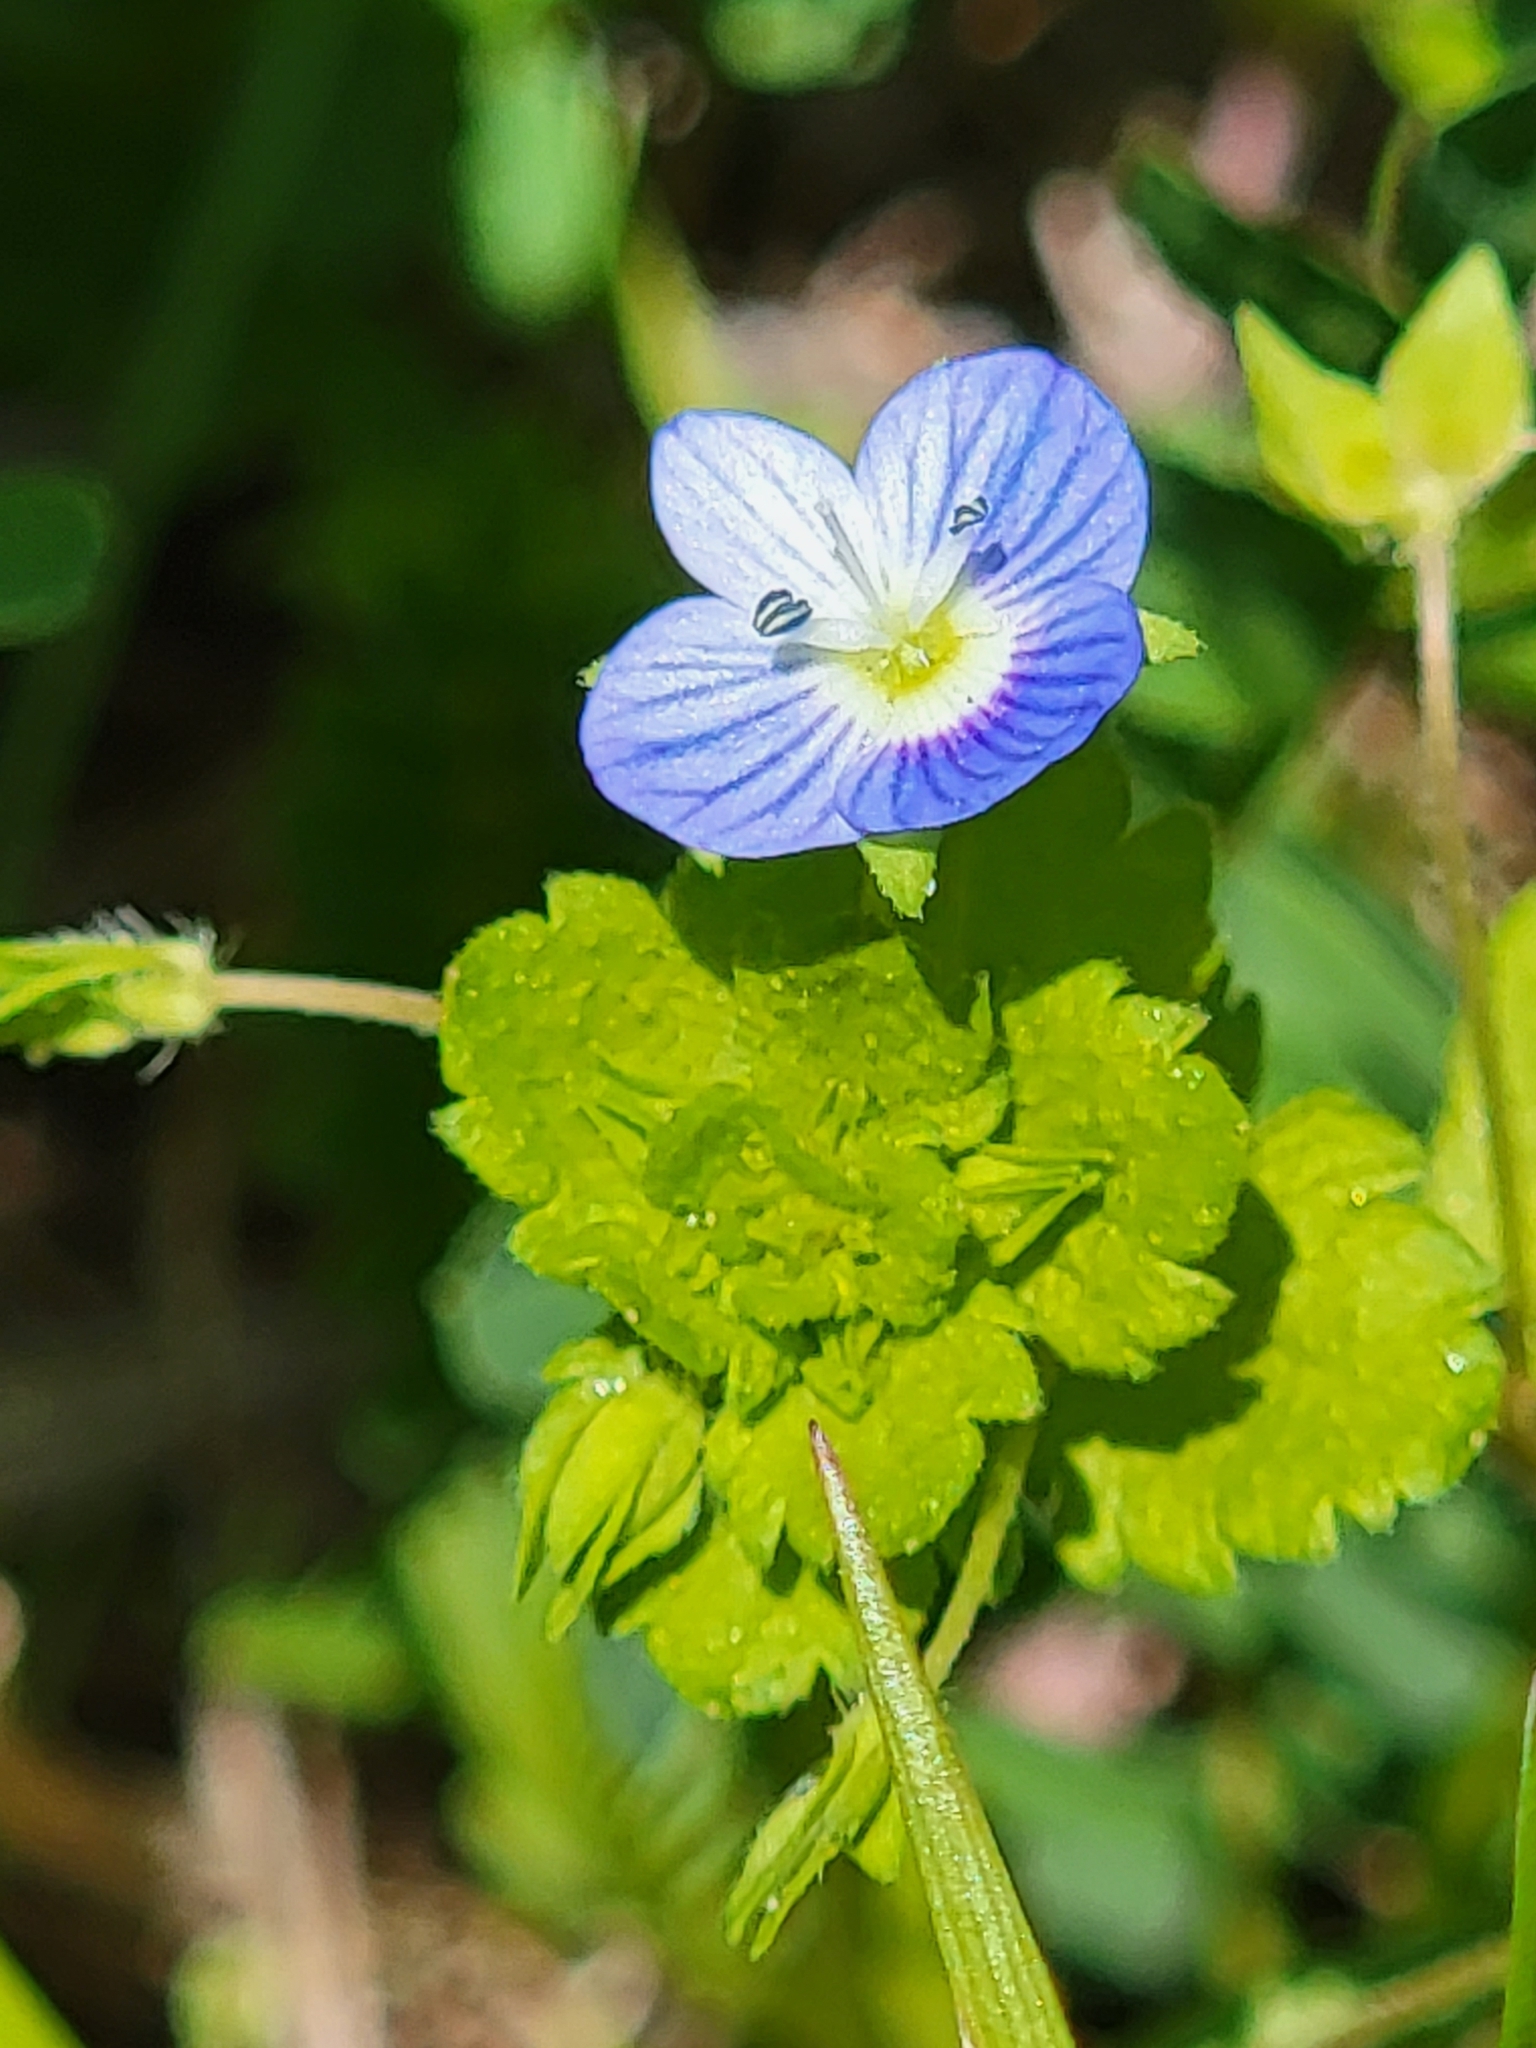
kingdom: Plantae
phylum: Tracheophyta
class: Magnoliopsida
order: Lamiales
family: Plantaginaceae
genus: Veronica
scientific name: Veronica persica
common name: Common field-speedwell
